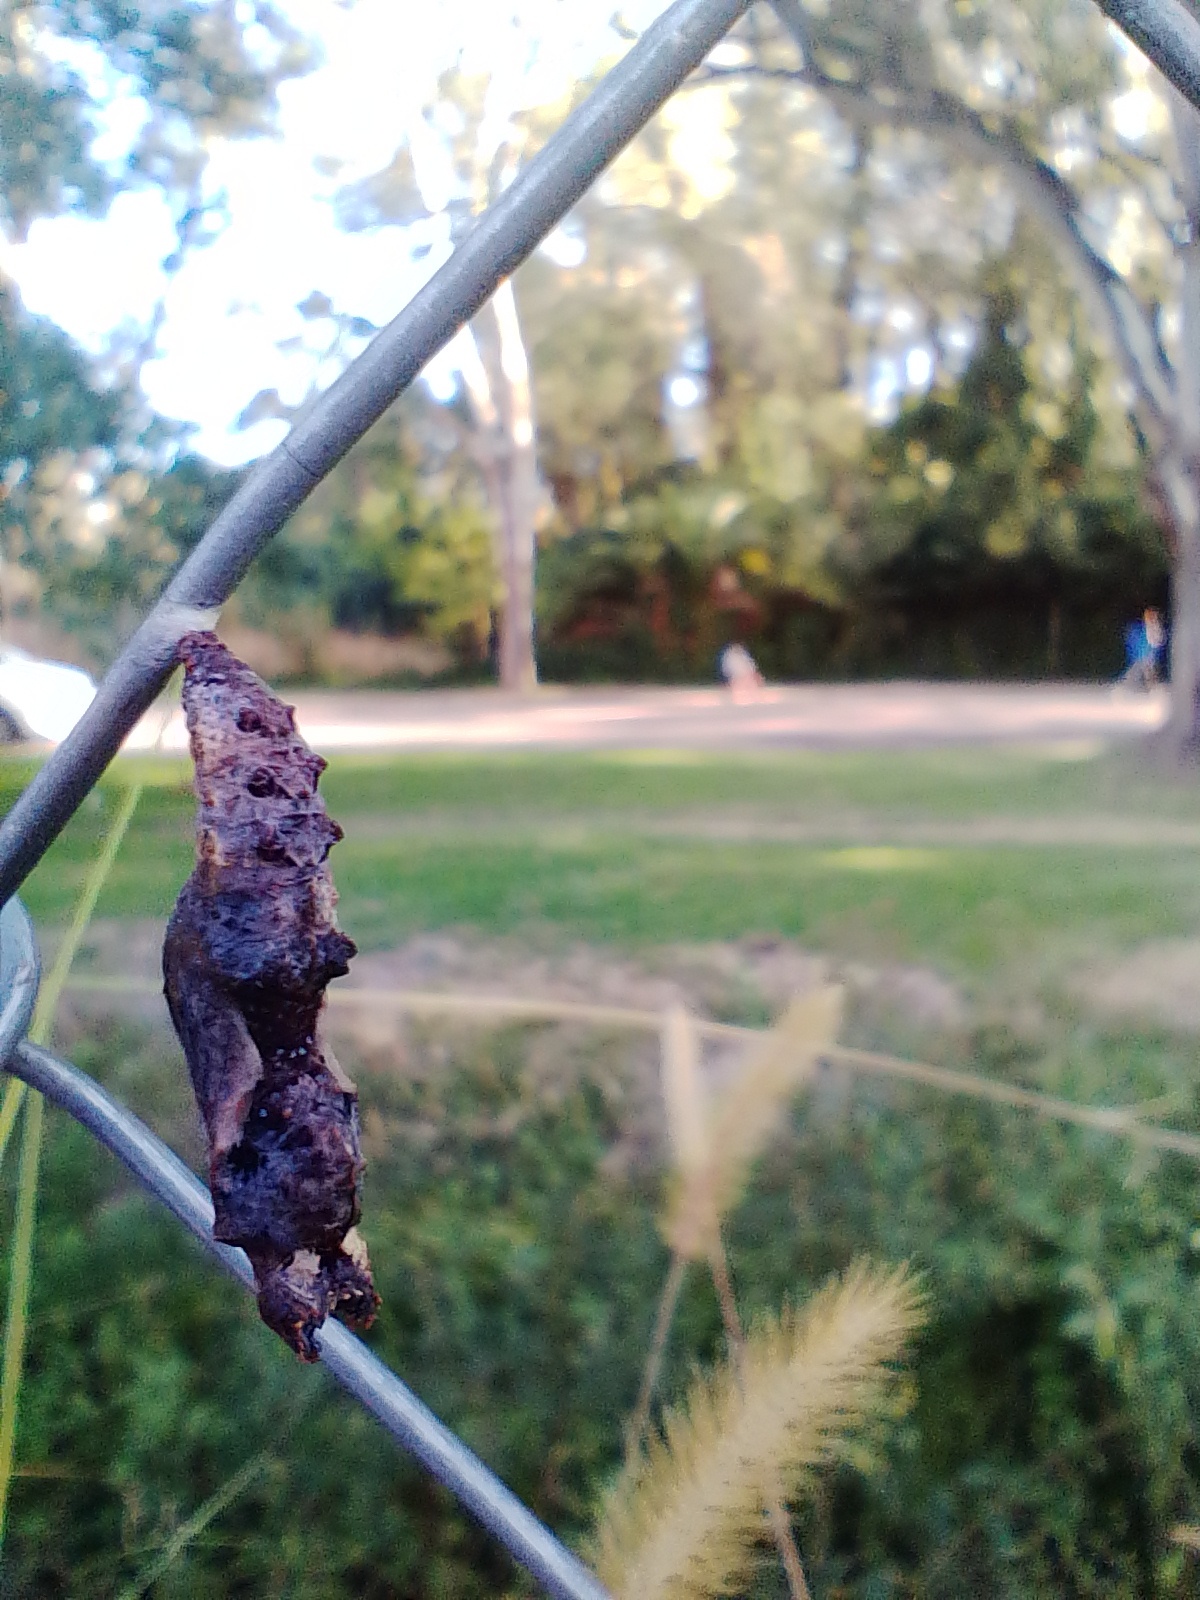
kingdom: Animalia
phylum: Arthropoda
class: Insecta
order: Lepidoptera
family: Nymphalidae
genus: Dione
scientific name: Dione vanillae
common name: Gulf fritillary
